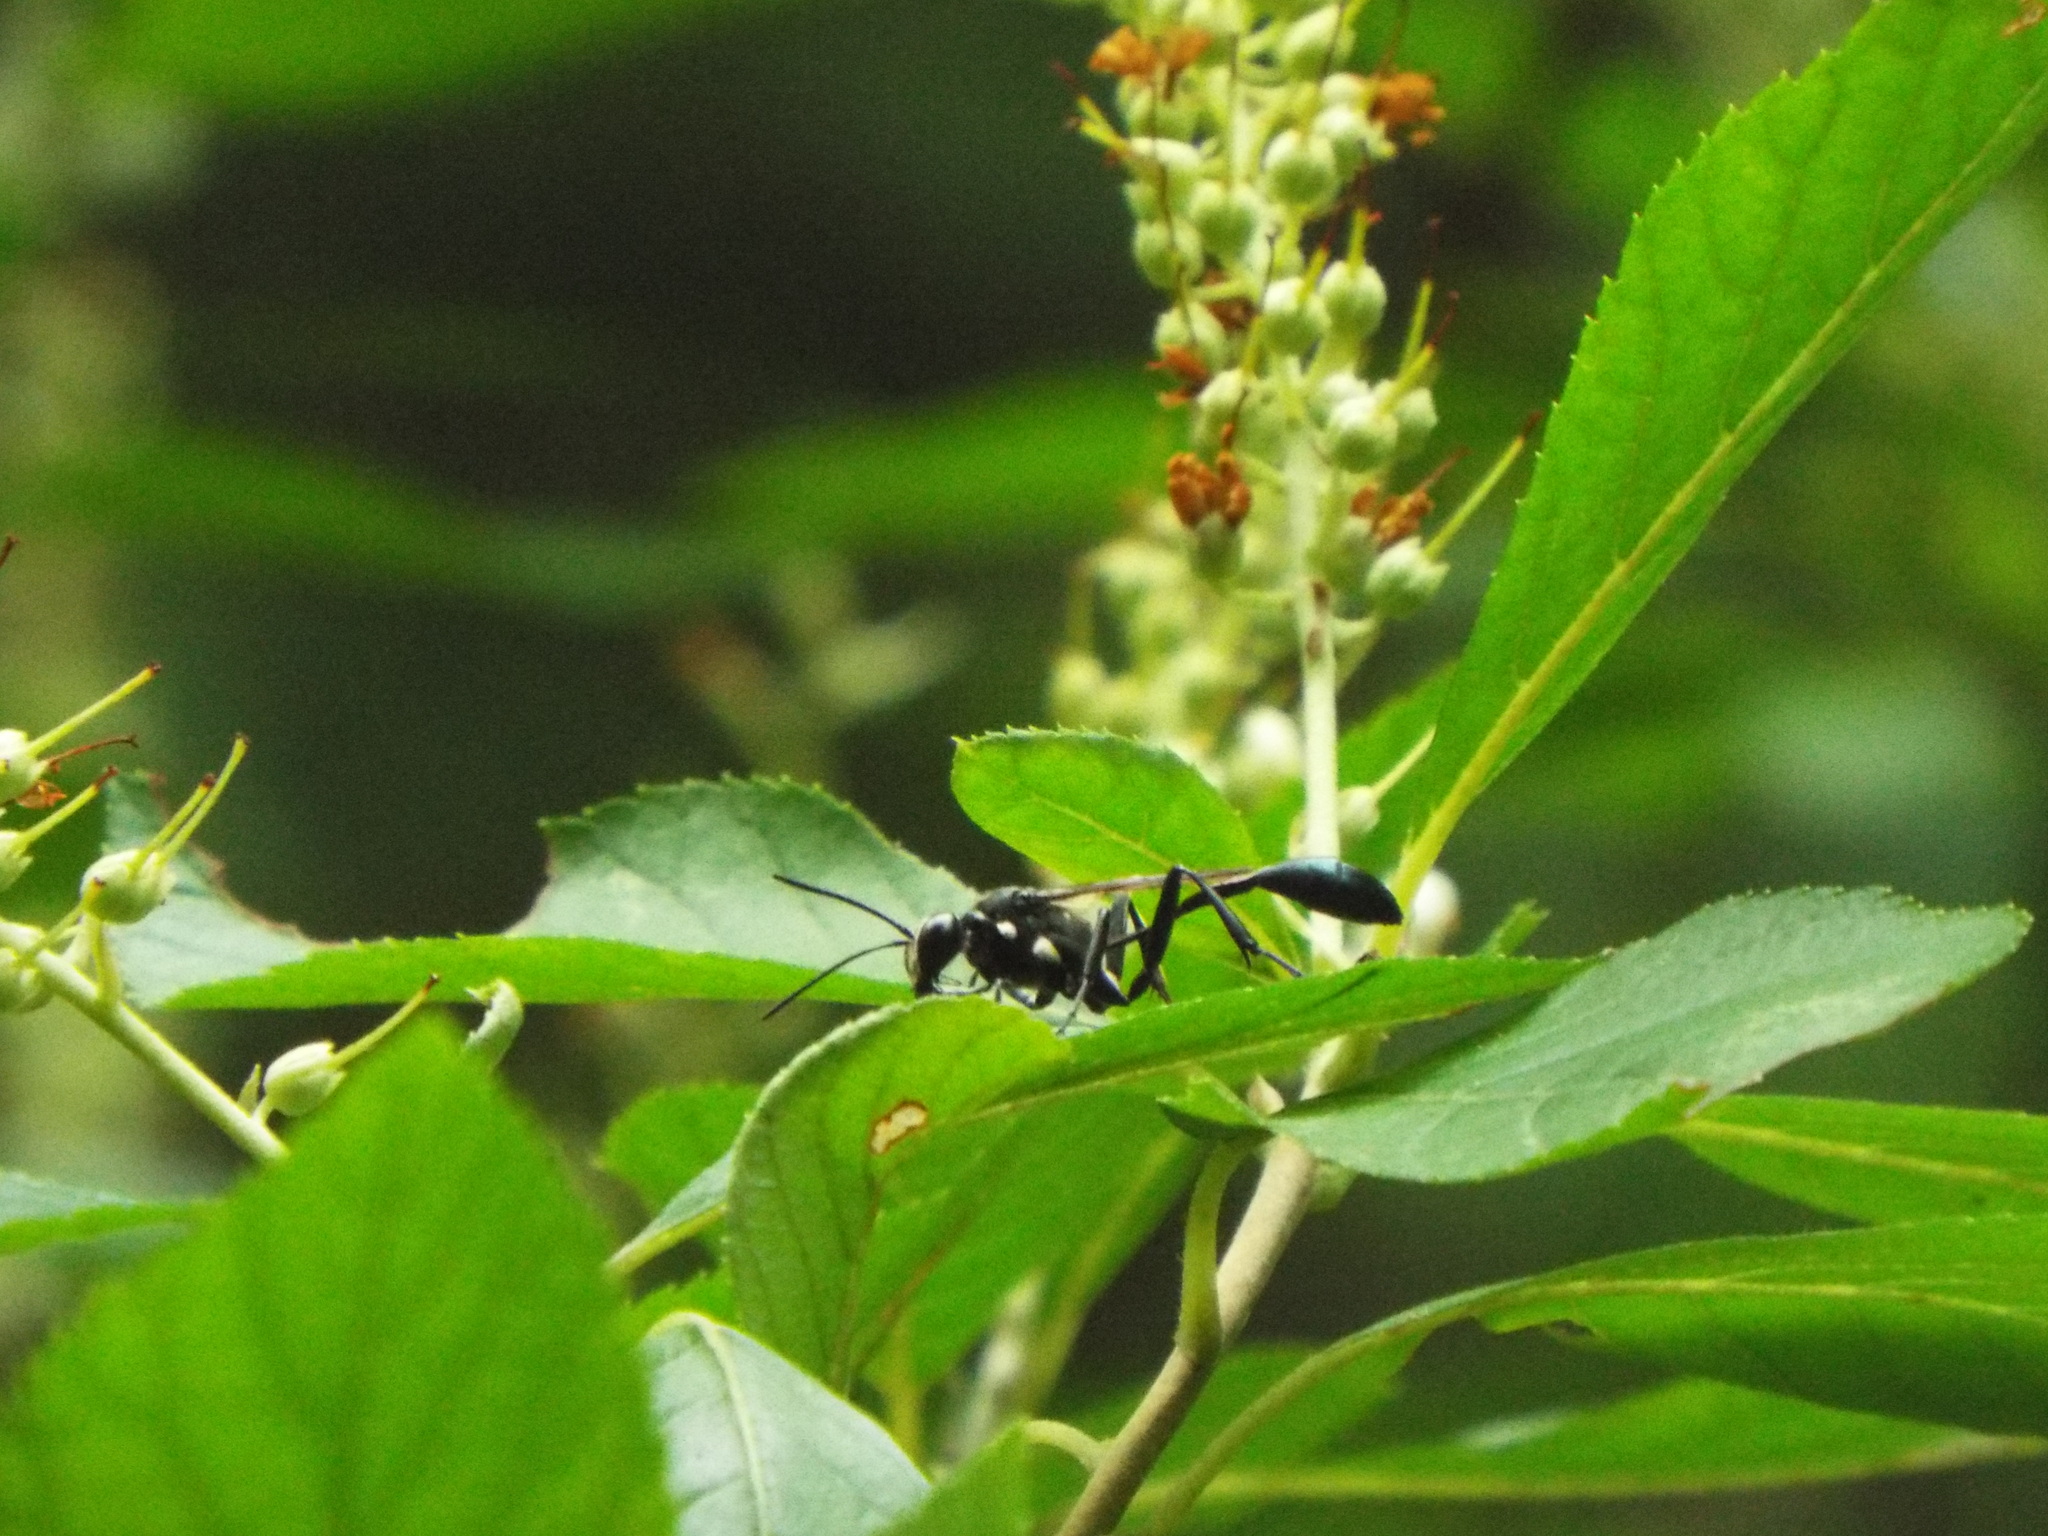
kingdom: Animalia
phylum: Arthropoda
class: Insecta
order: Hymenoptera
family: Sphecidae
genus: Eremnophila
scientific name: Eremnophila aureonotata
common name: Gold-marked thread-waisted wasp
